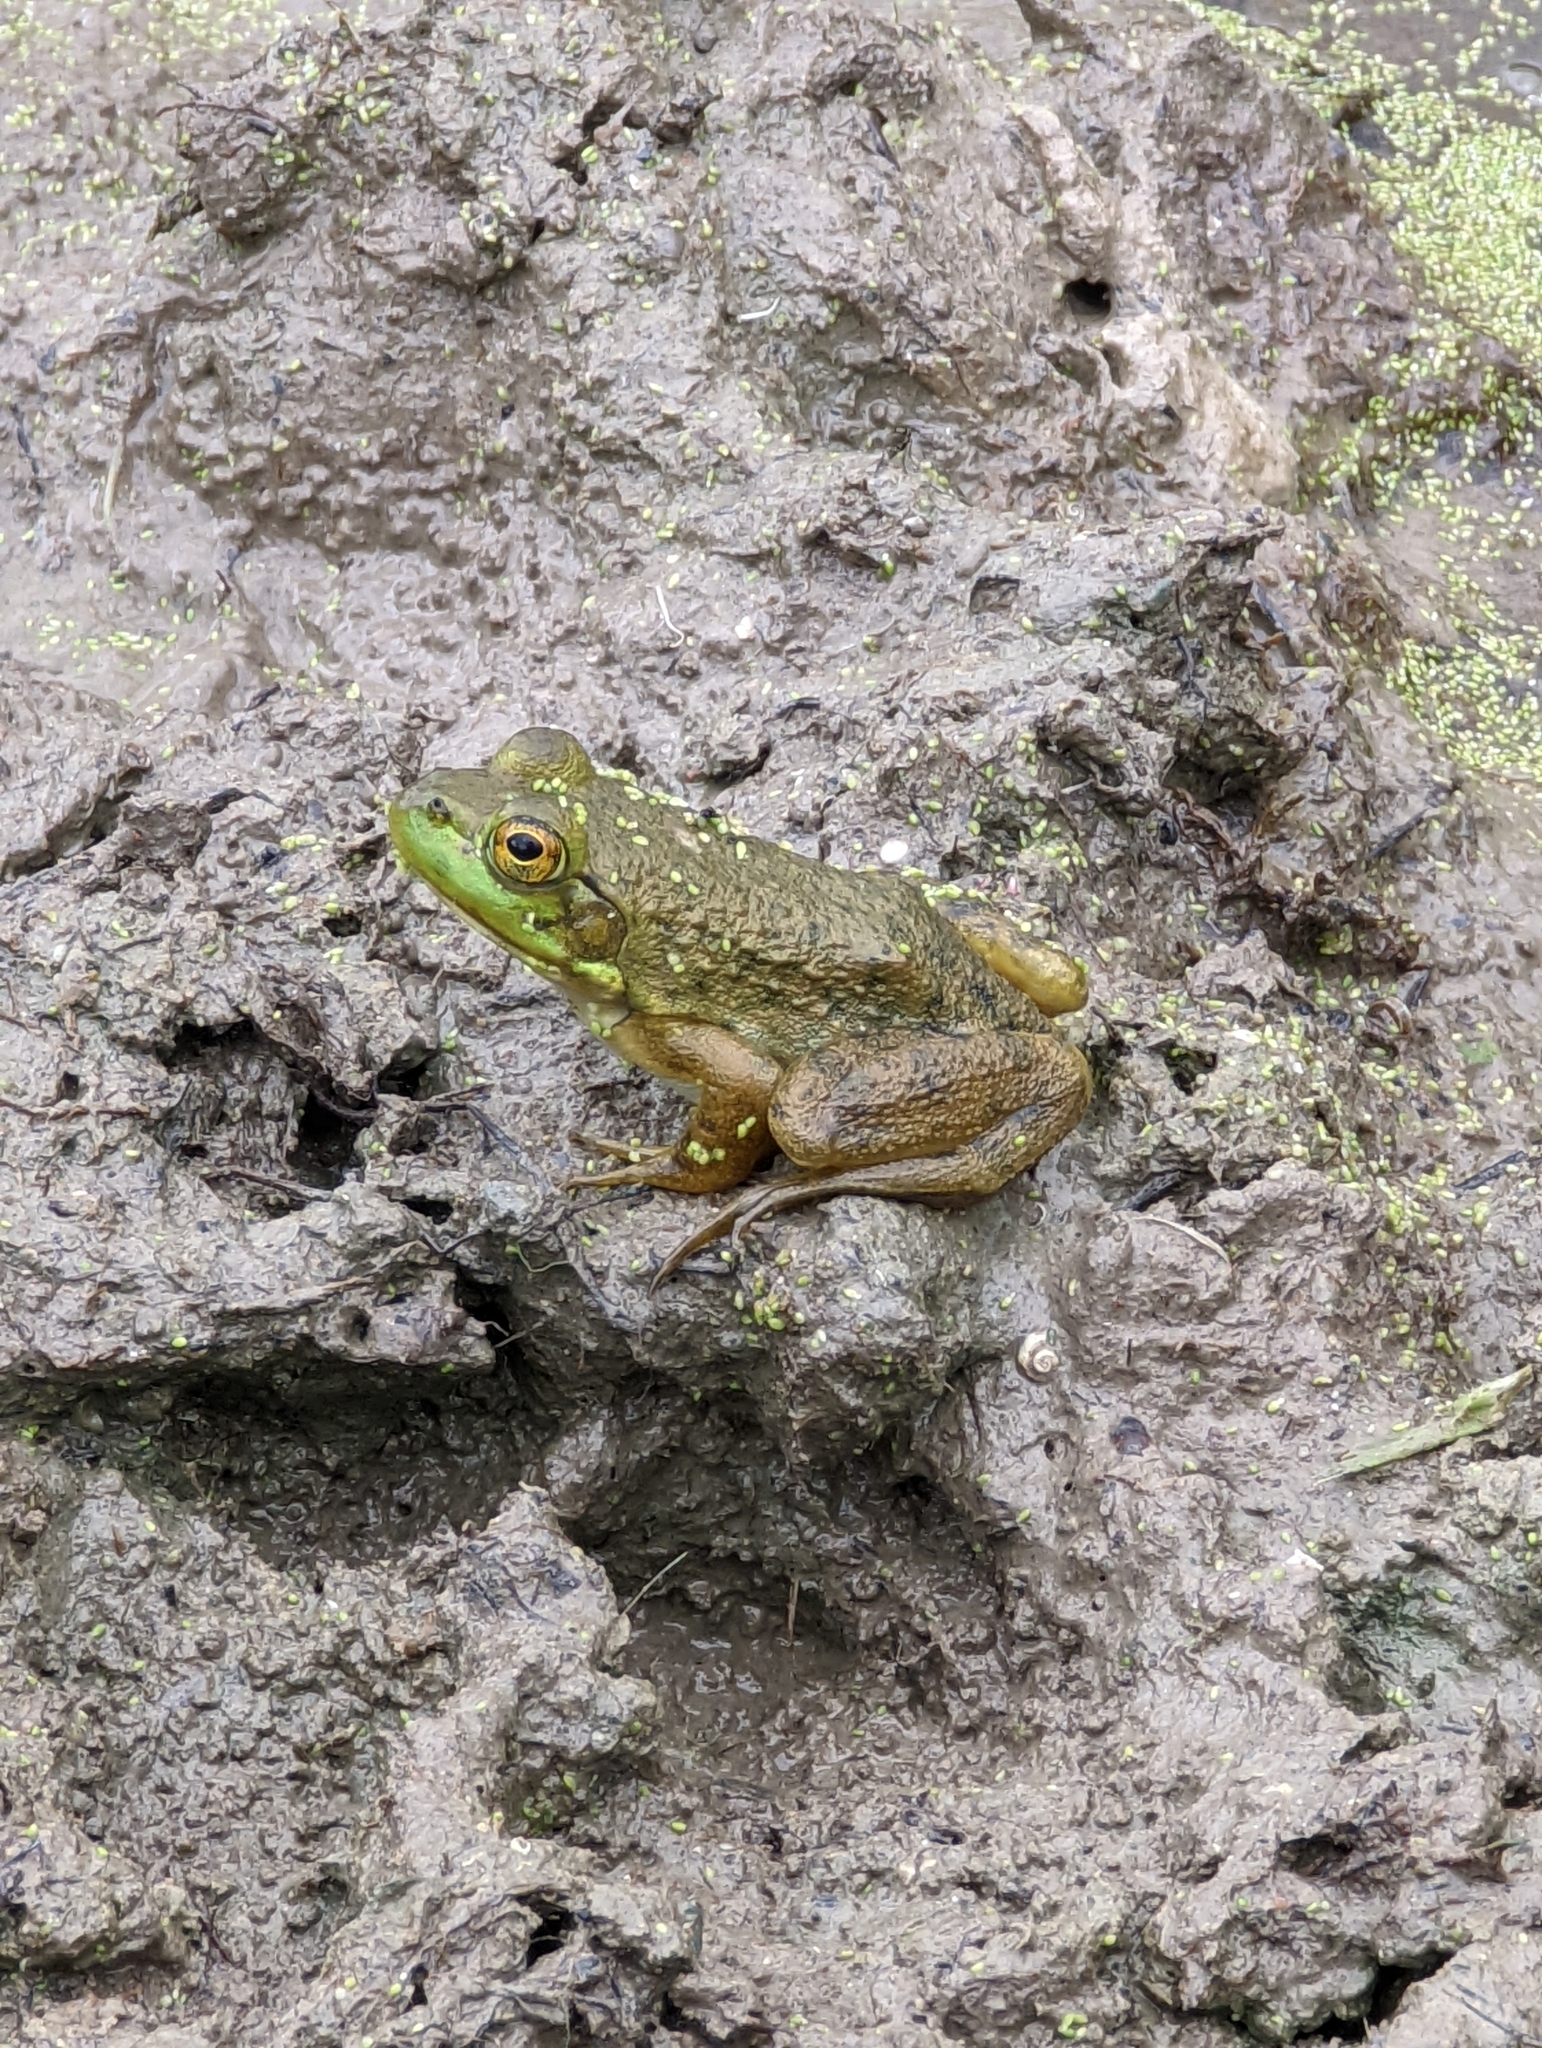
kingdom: Animalia
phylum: Chordata
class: Amphibia
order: Anura
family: Ranidae
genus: Lithobates
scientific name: Lithobates catesbeianus
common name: American bullfrog
